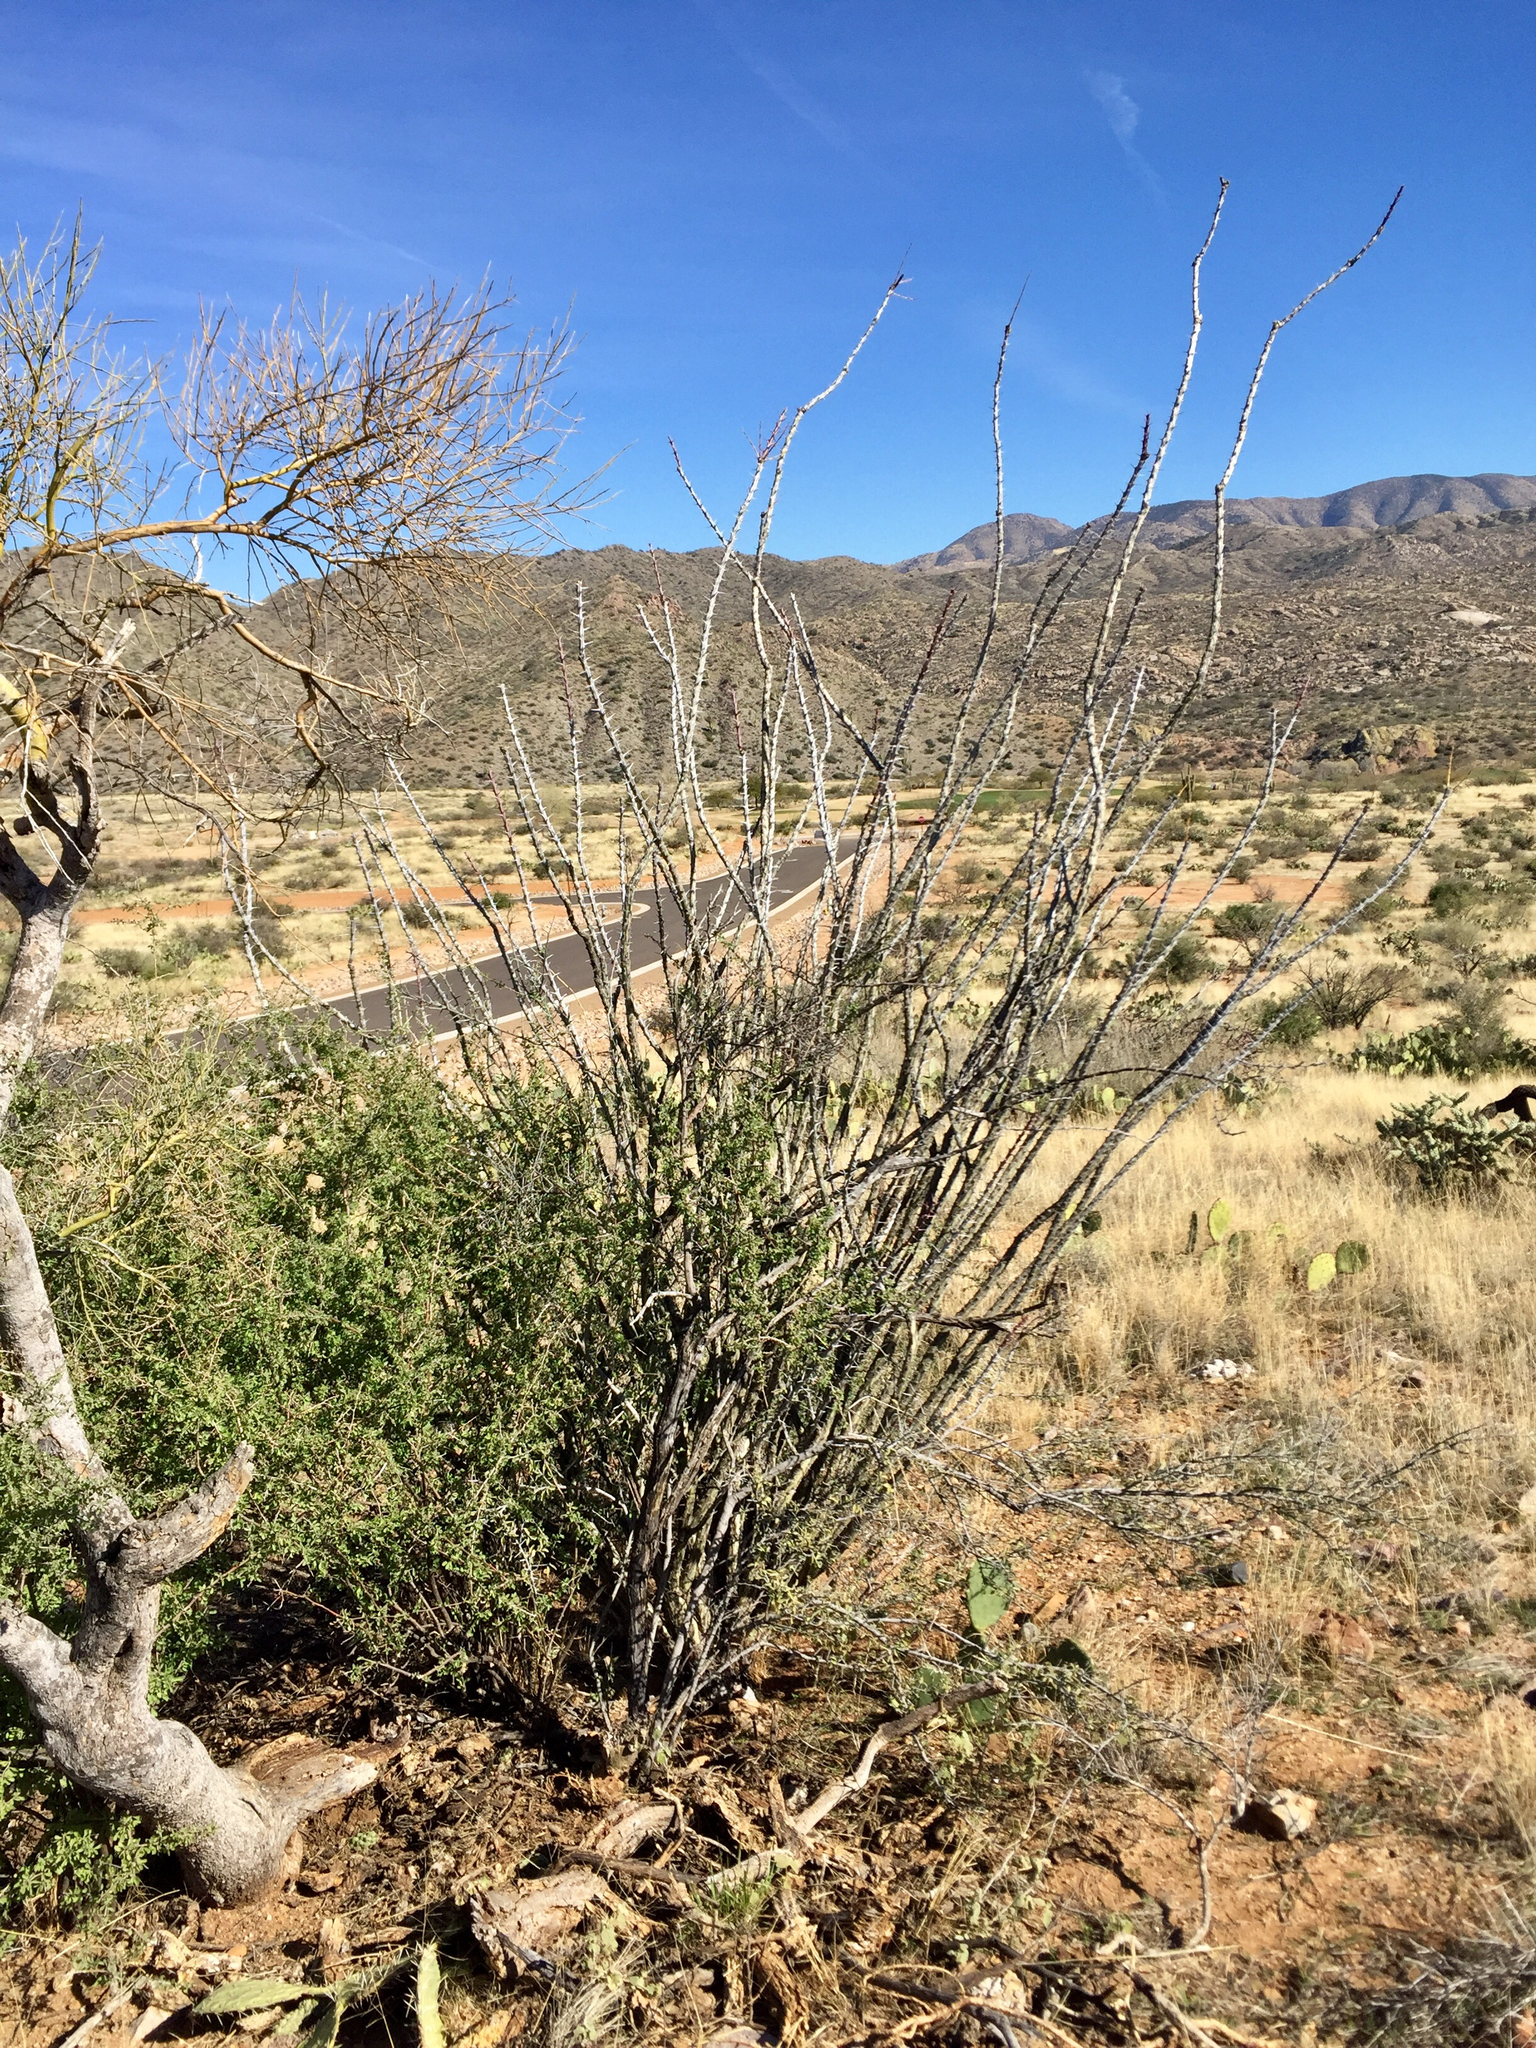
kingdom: Plantae
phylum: Tracheophyta
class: Magnoliopsida
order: Ericales
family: Fouquieriaceae
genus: Fouquieria
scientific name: Fouquieria splendens
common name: Vine-cactus
